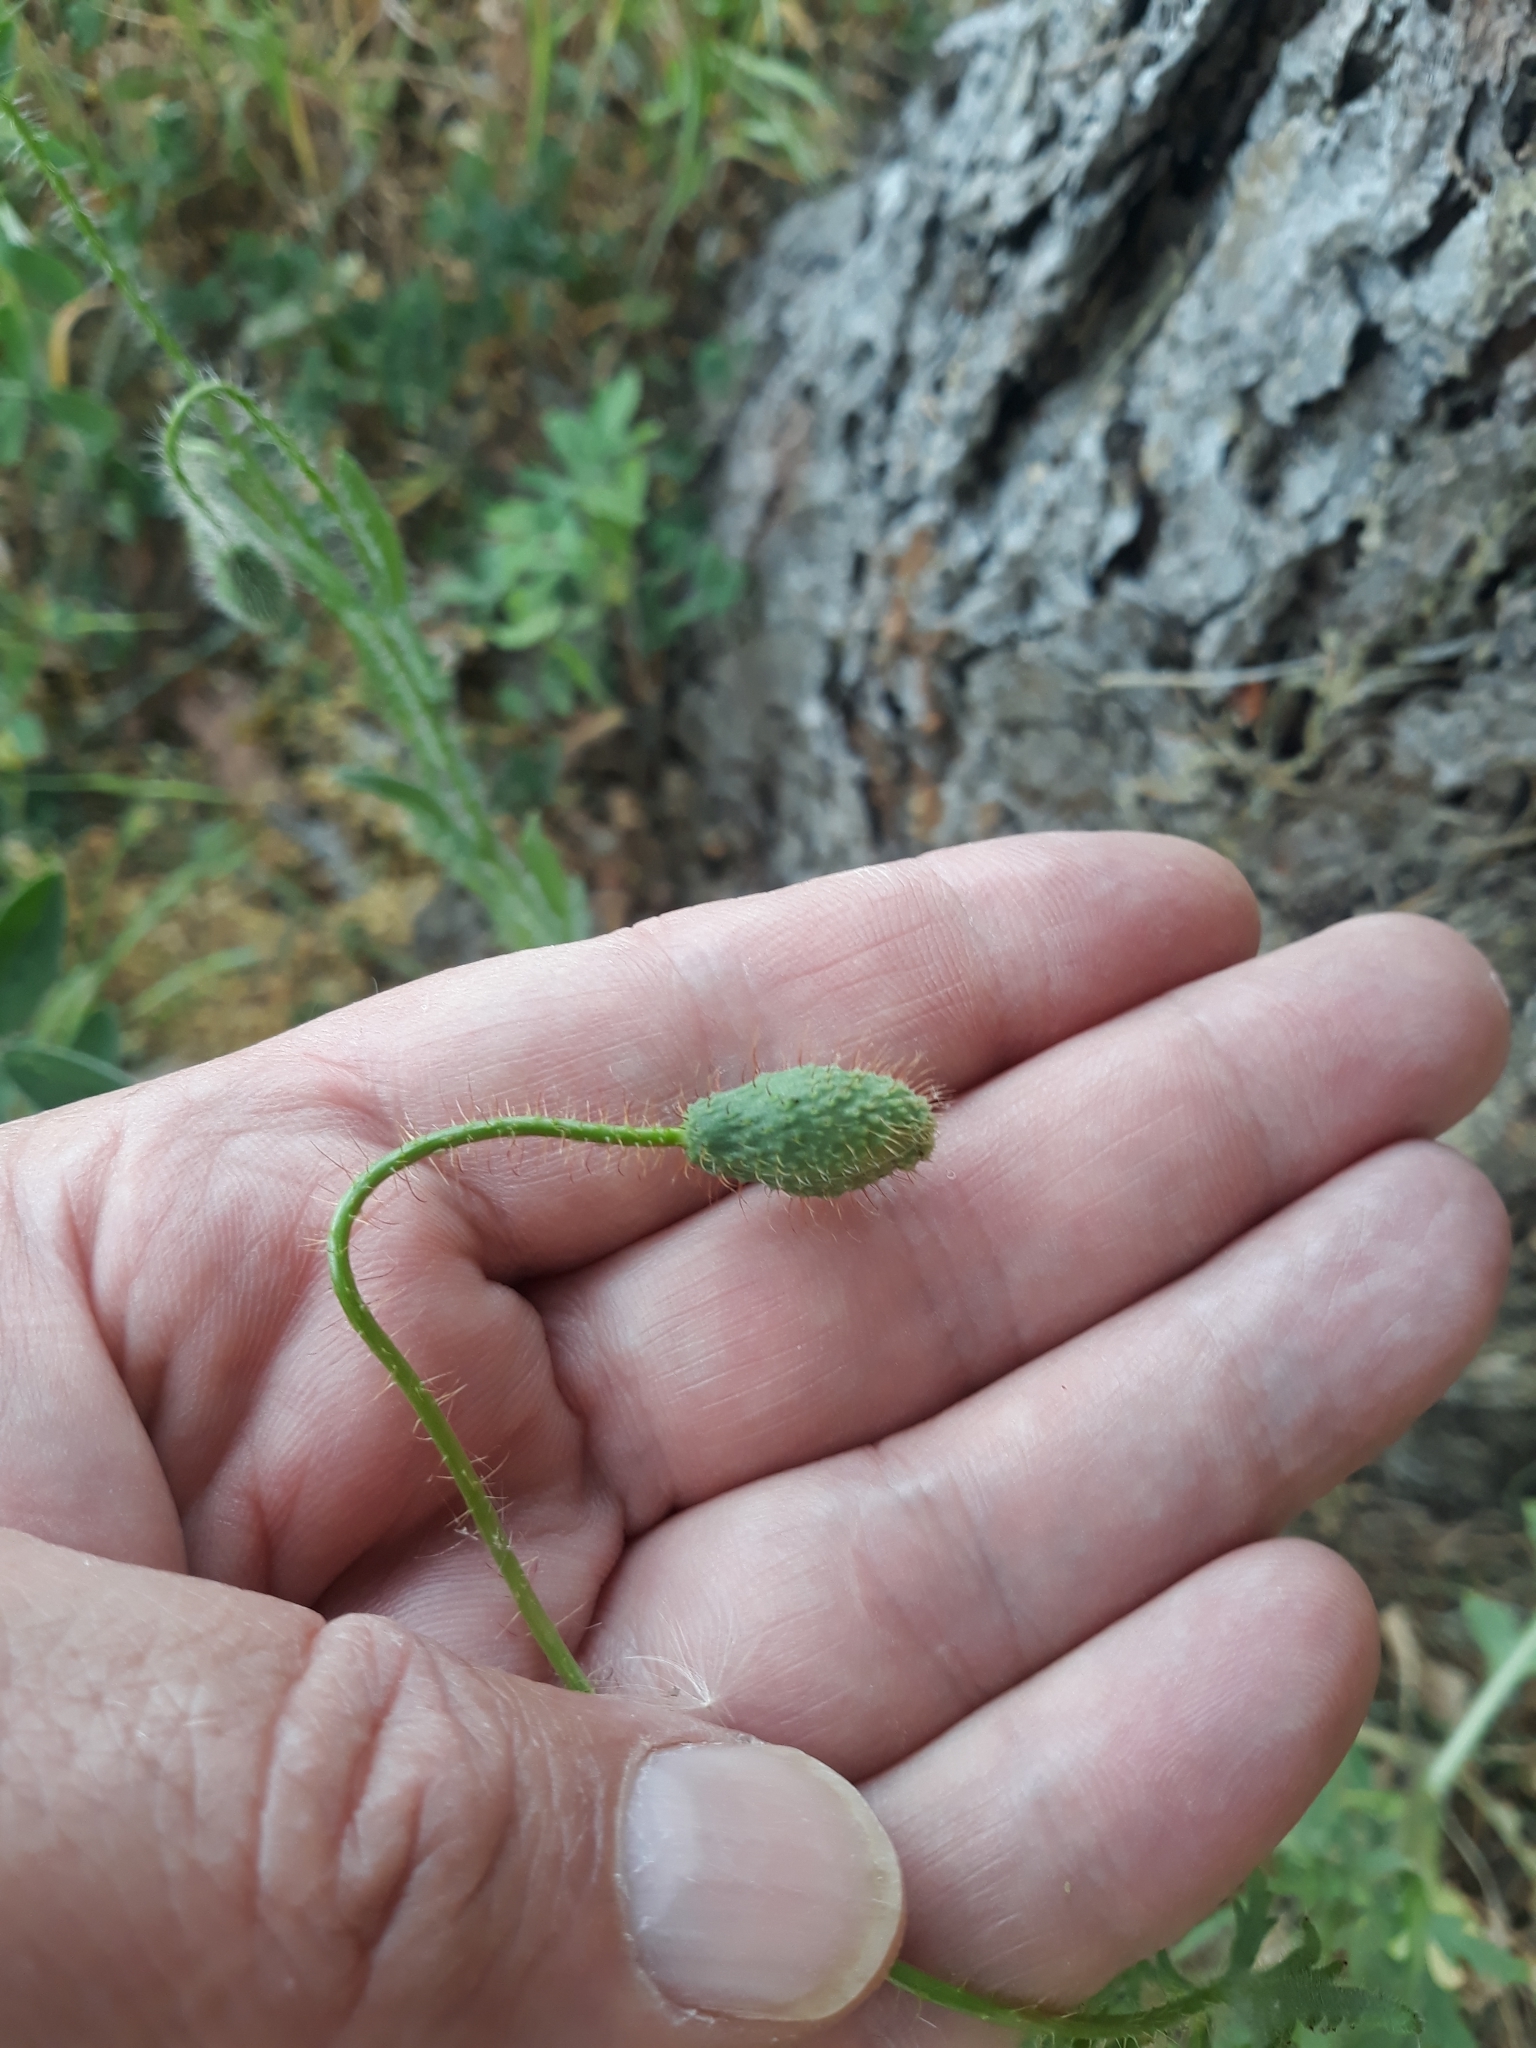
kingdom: Plantae
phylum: Tracheophyta
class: Magnoliopsida
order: Ranunculales
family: Papaveraceae
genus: Papaver
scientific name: Papaver rhoeas
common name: Corn poppy
